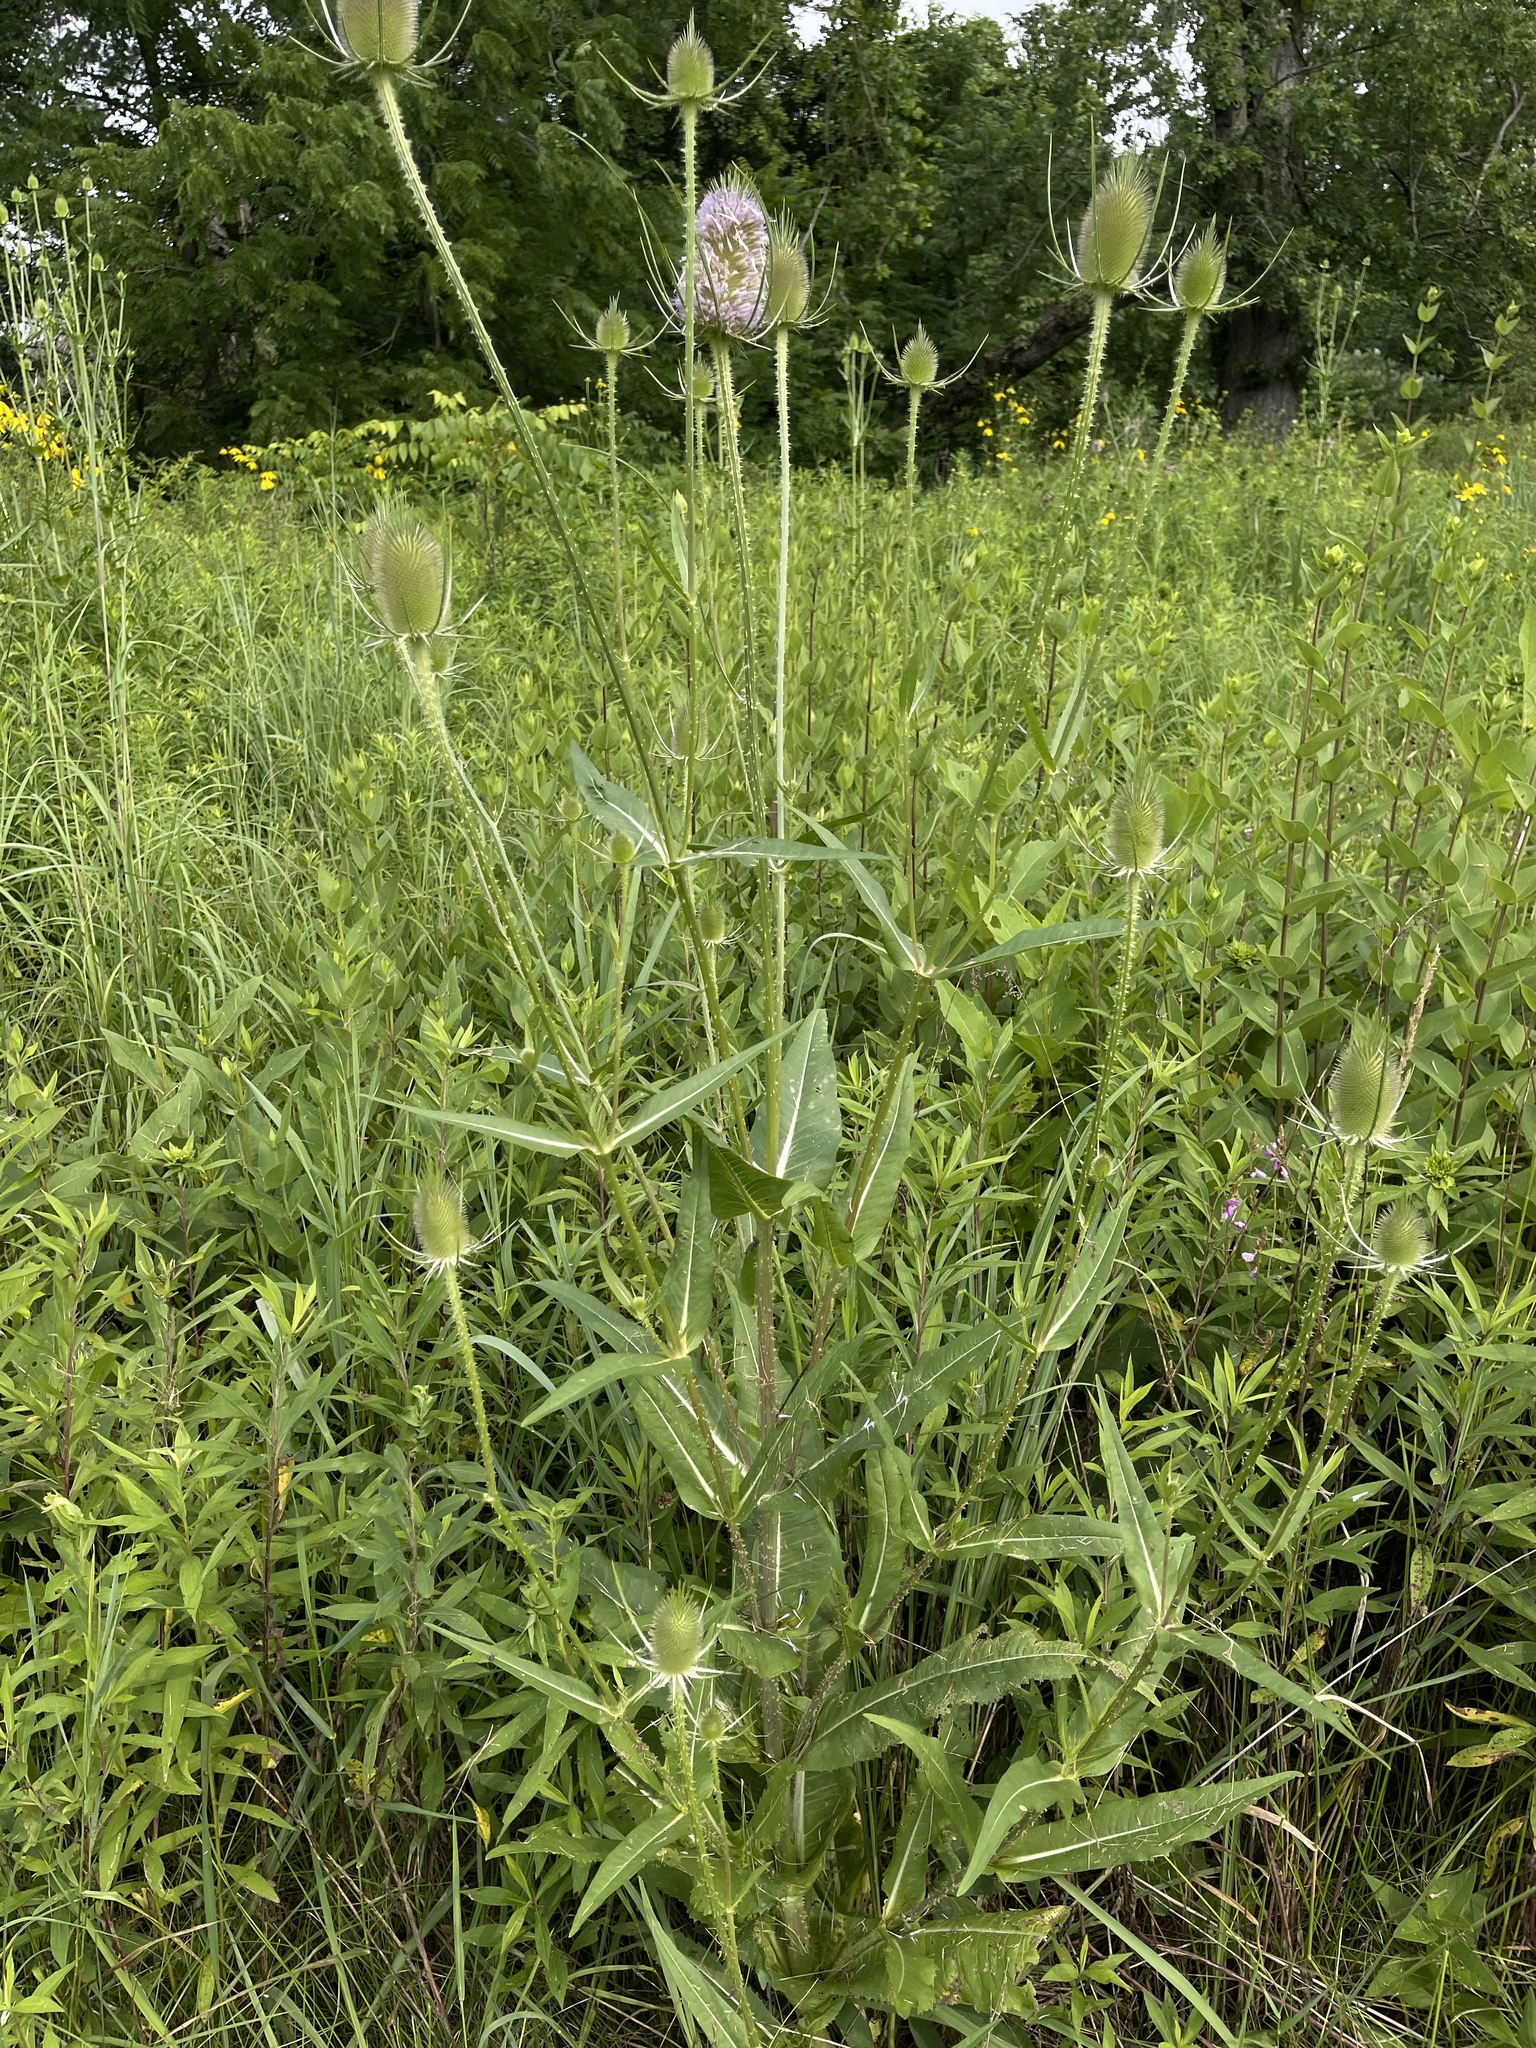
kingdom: Plantae
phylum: Tracheophyta
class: Magnoliopsida
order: Dipsacales
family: Caprifoliaceae
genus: Dipsacus
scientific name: Dipsacus fullonum
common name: Teasel
